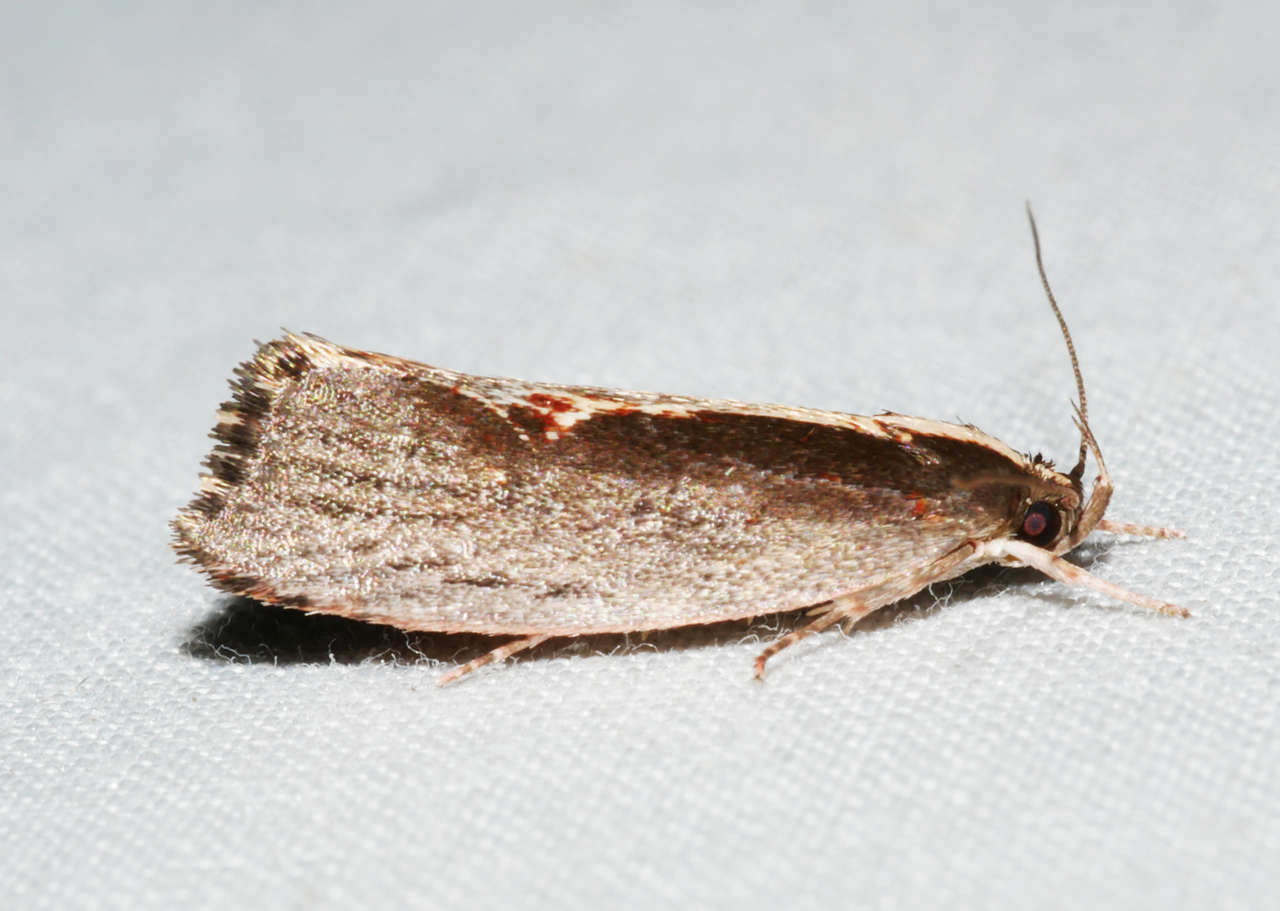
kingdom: Animalia
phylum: Arthropoda
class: Insecta
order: Lepidoptera
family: Oecophoridae
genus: Archaereta
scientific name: Archaereta dorsivittella
